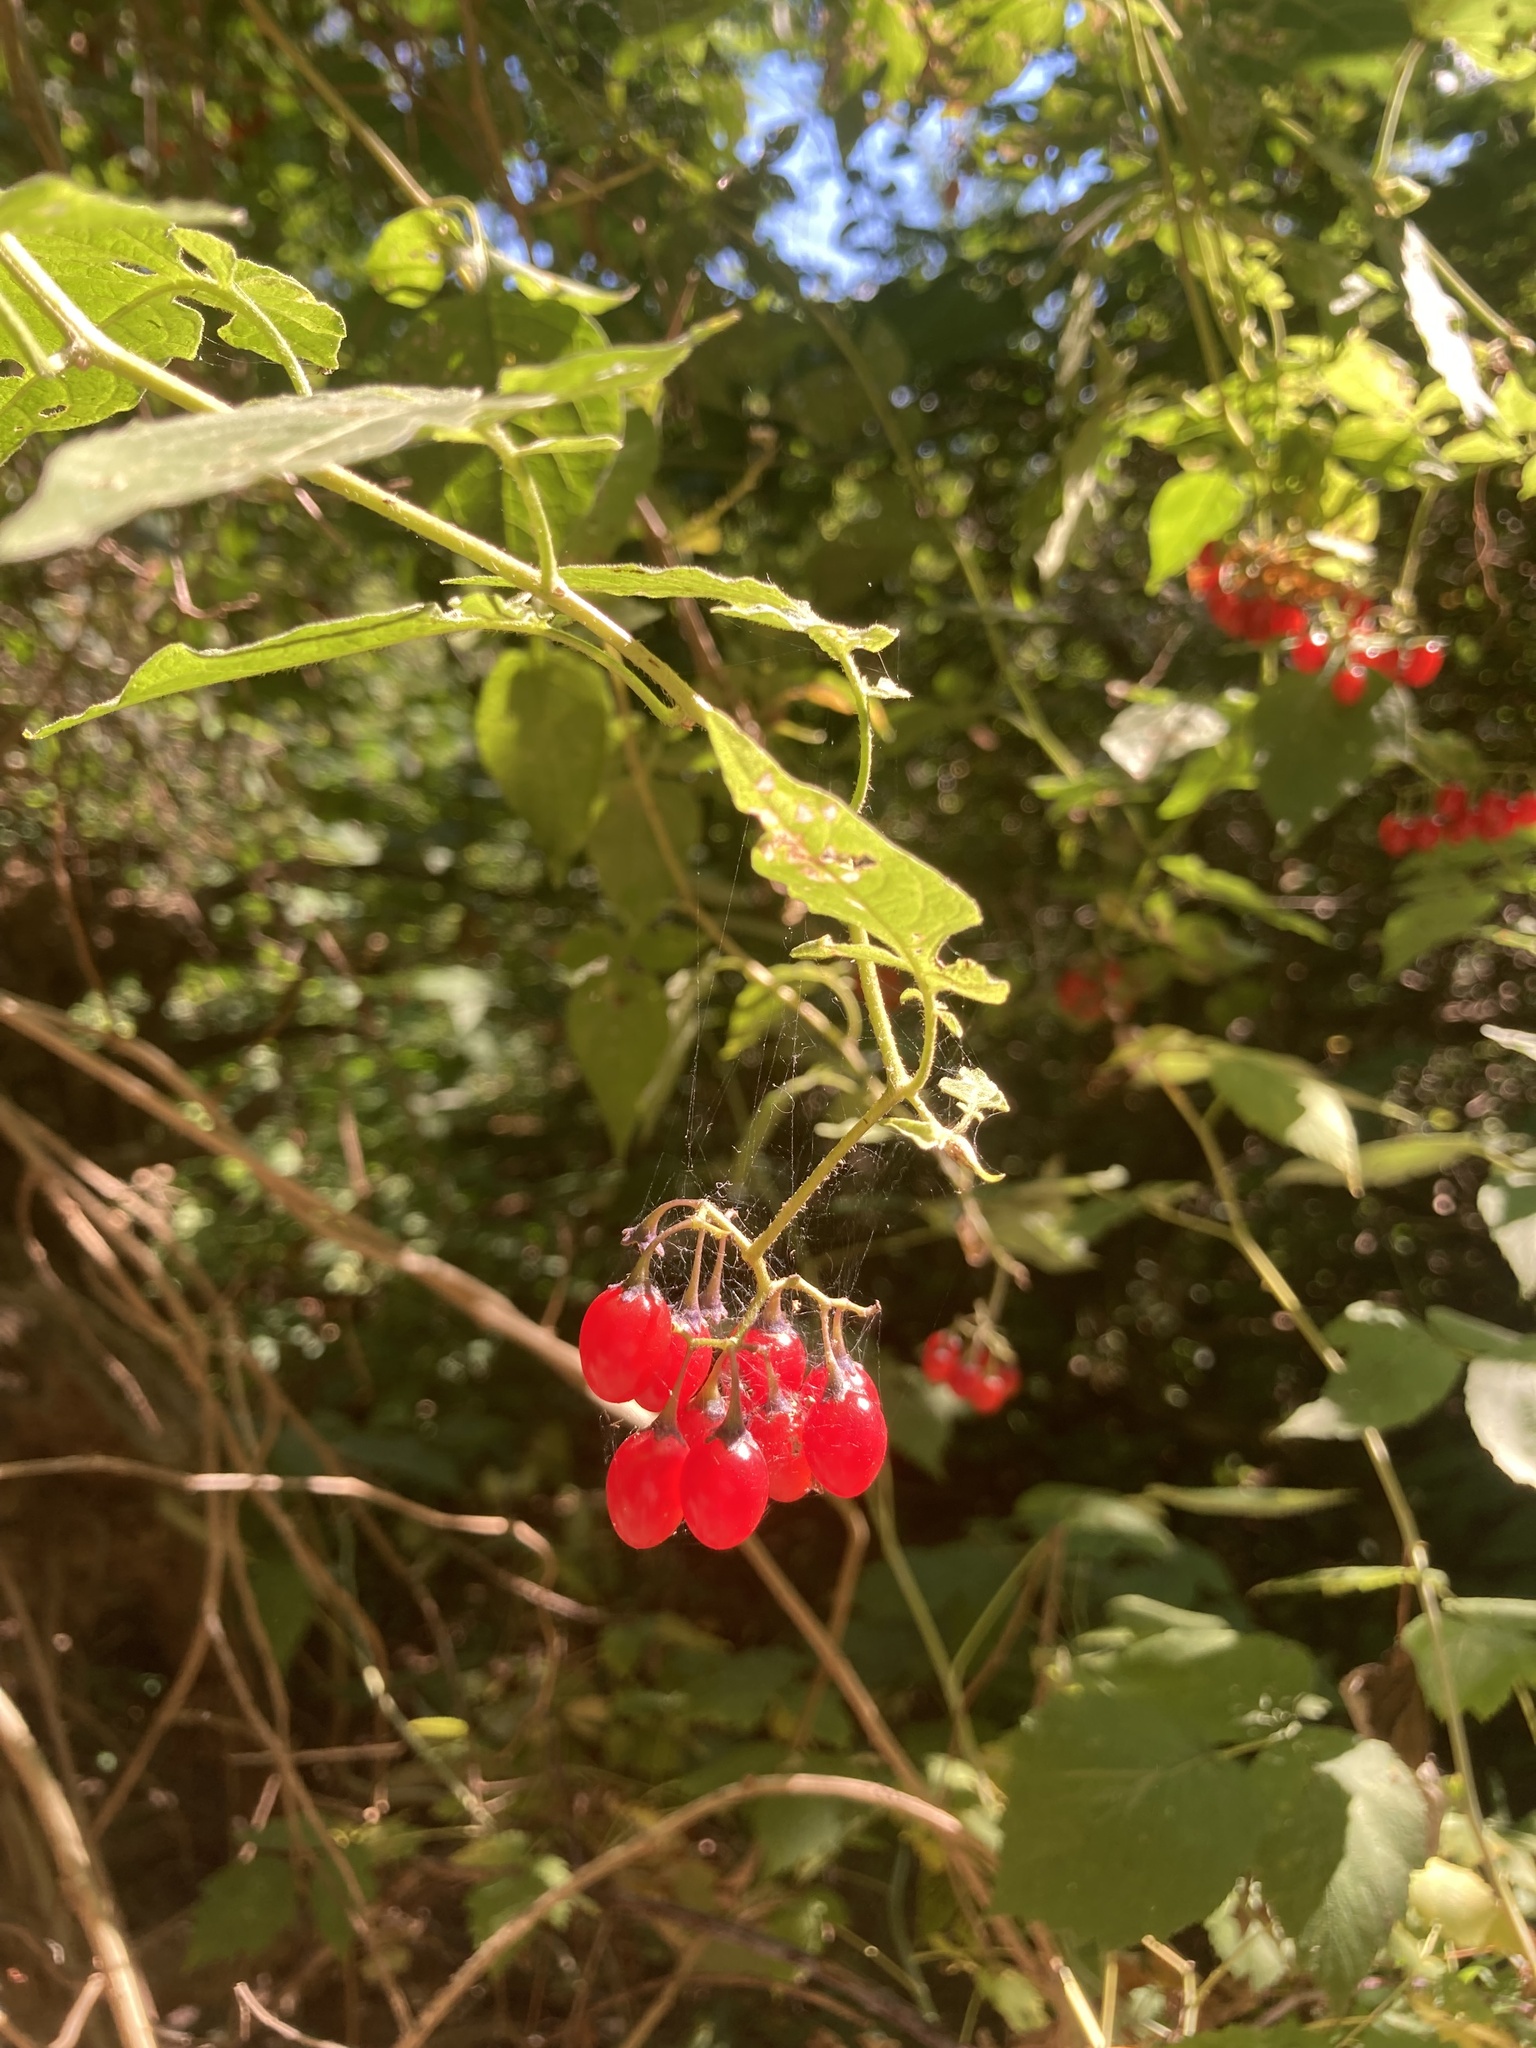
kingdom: Plantae
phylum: Tracheophyta
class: Magnoliopsida
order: Solanales
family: Solanaceae
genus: Solanum
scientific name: Solanum dulcamara
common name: Climbing nightshade
